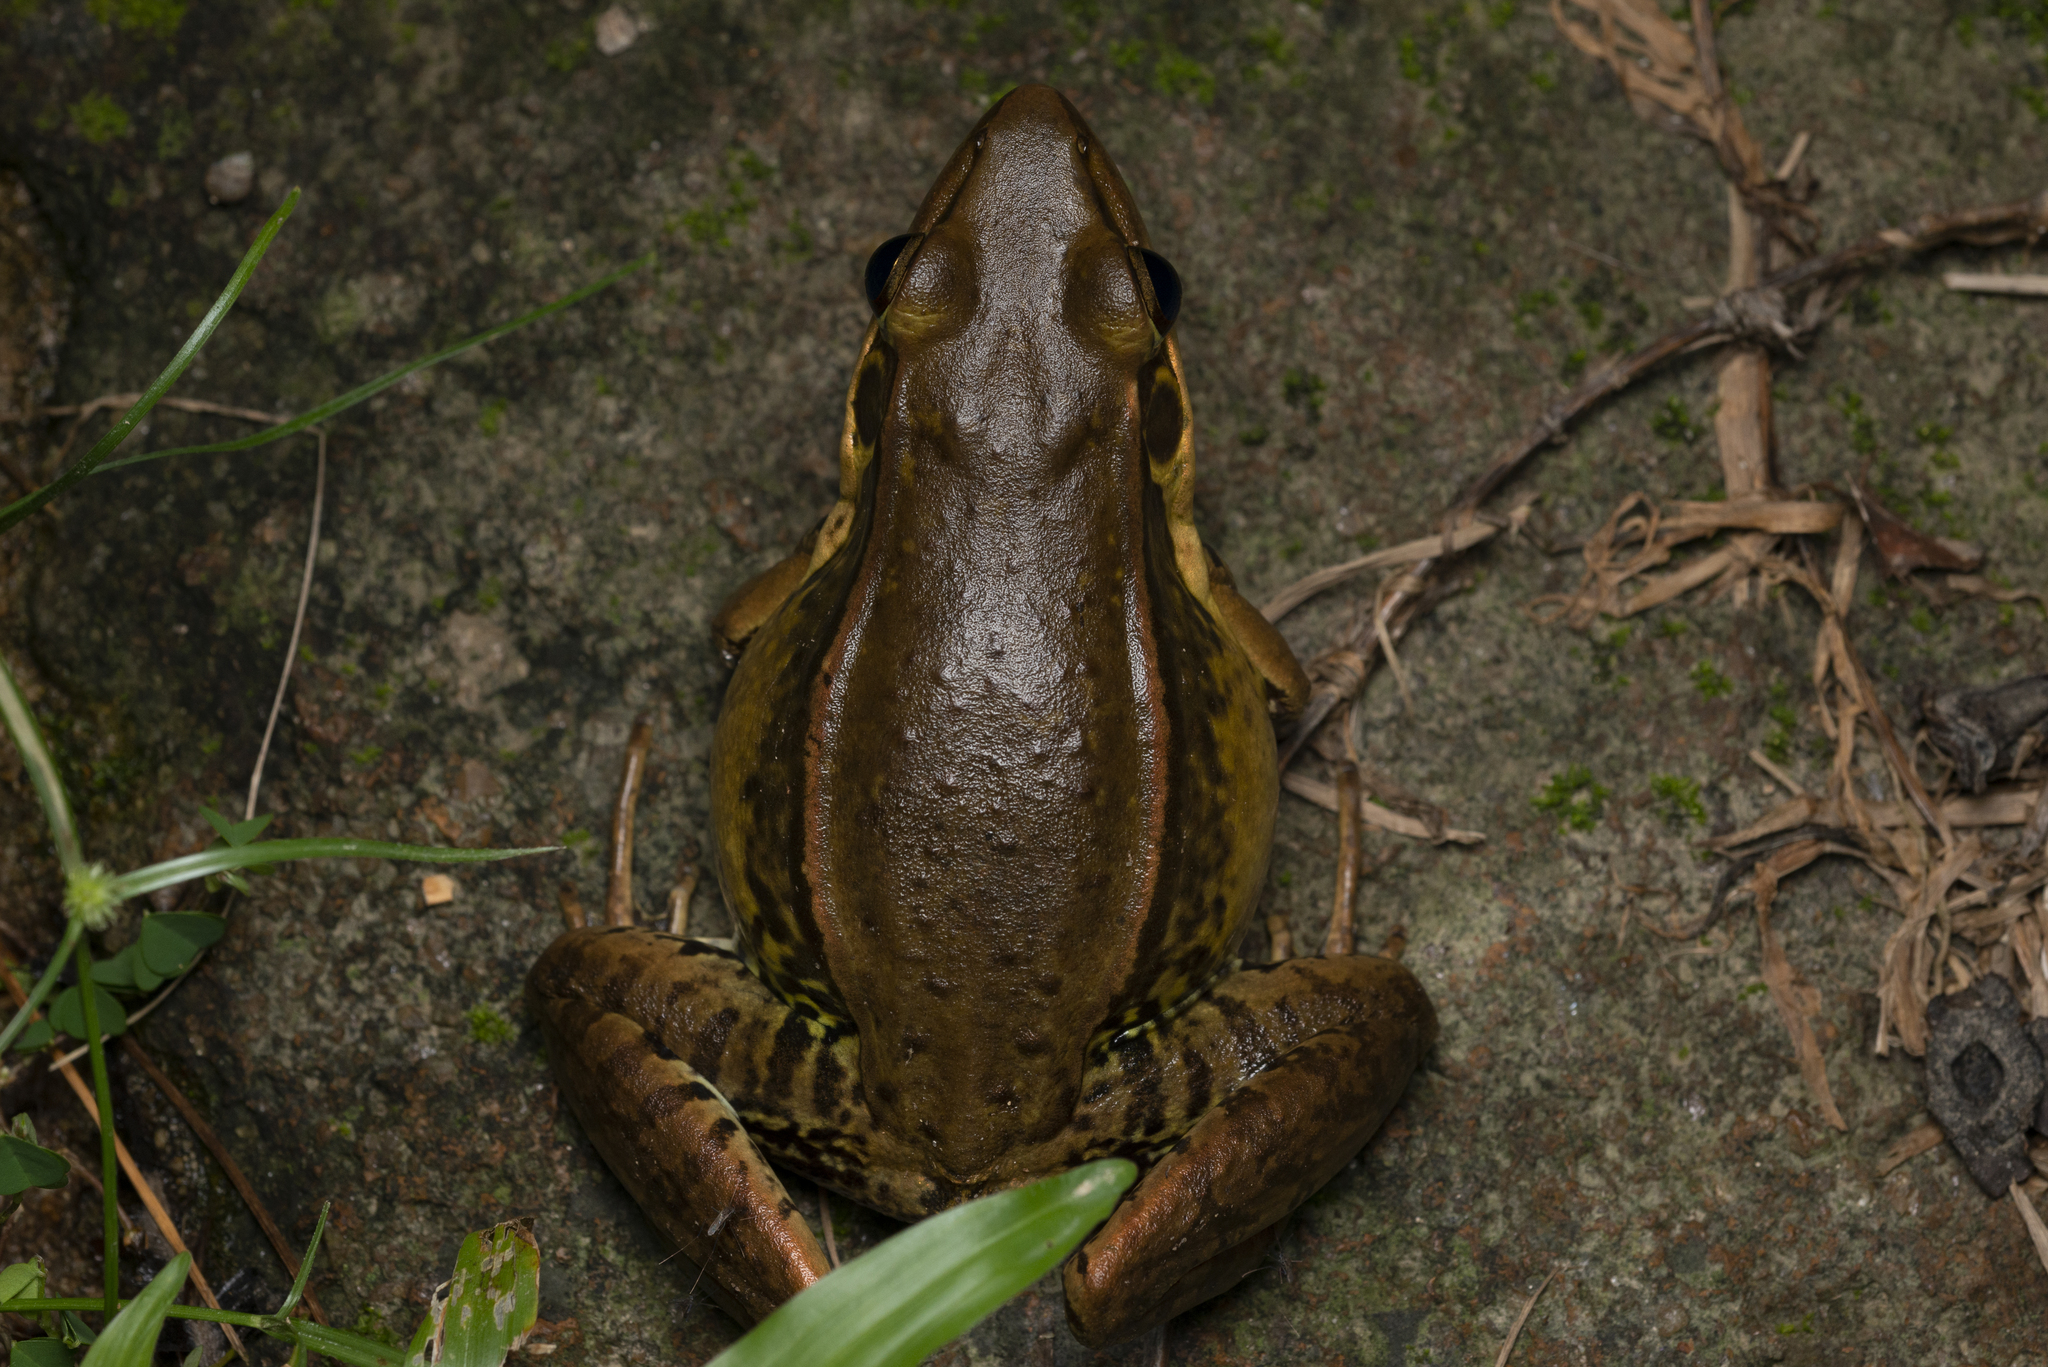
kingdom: Animalia
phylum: Chordata
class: Amphibia
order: Anura
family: Ranidae
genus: Sylvirana
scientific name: Sylvirana guentheri
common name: Guenther's amoy frog
